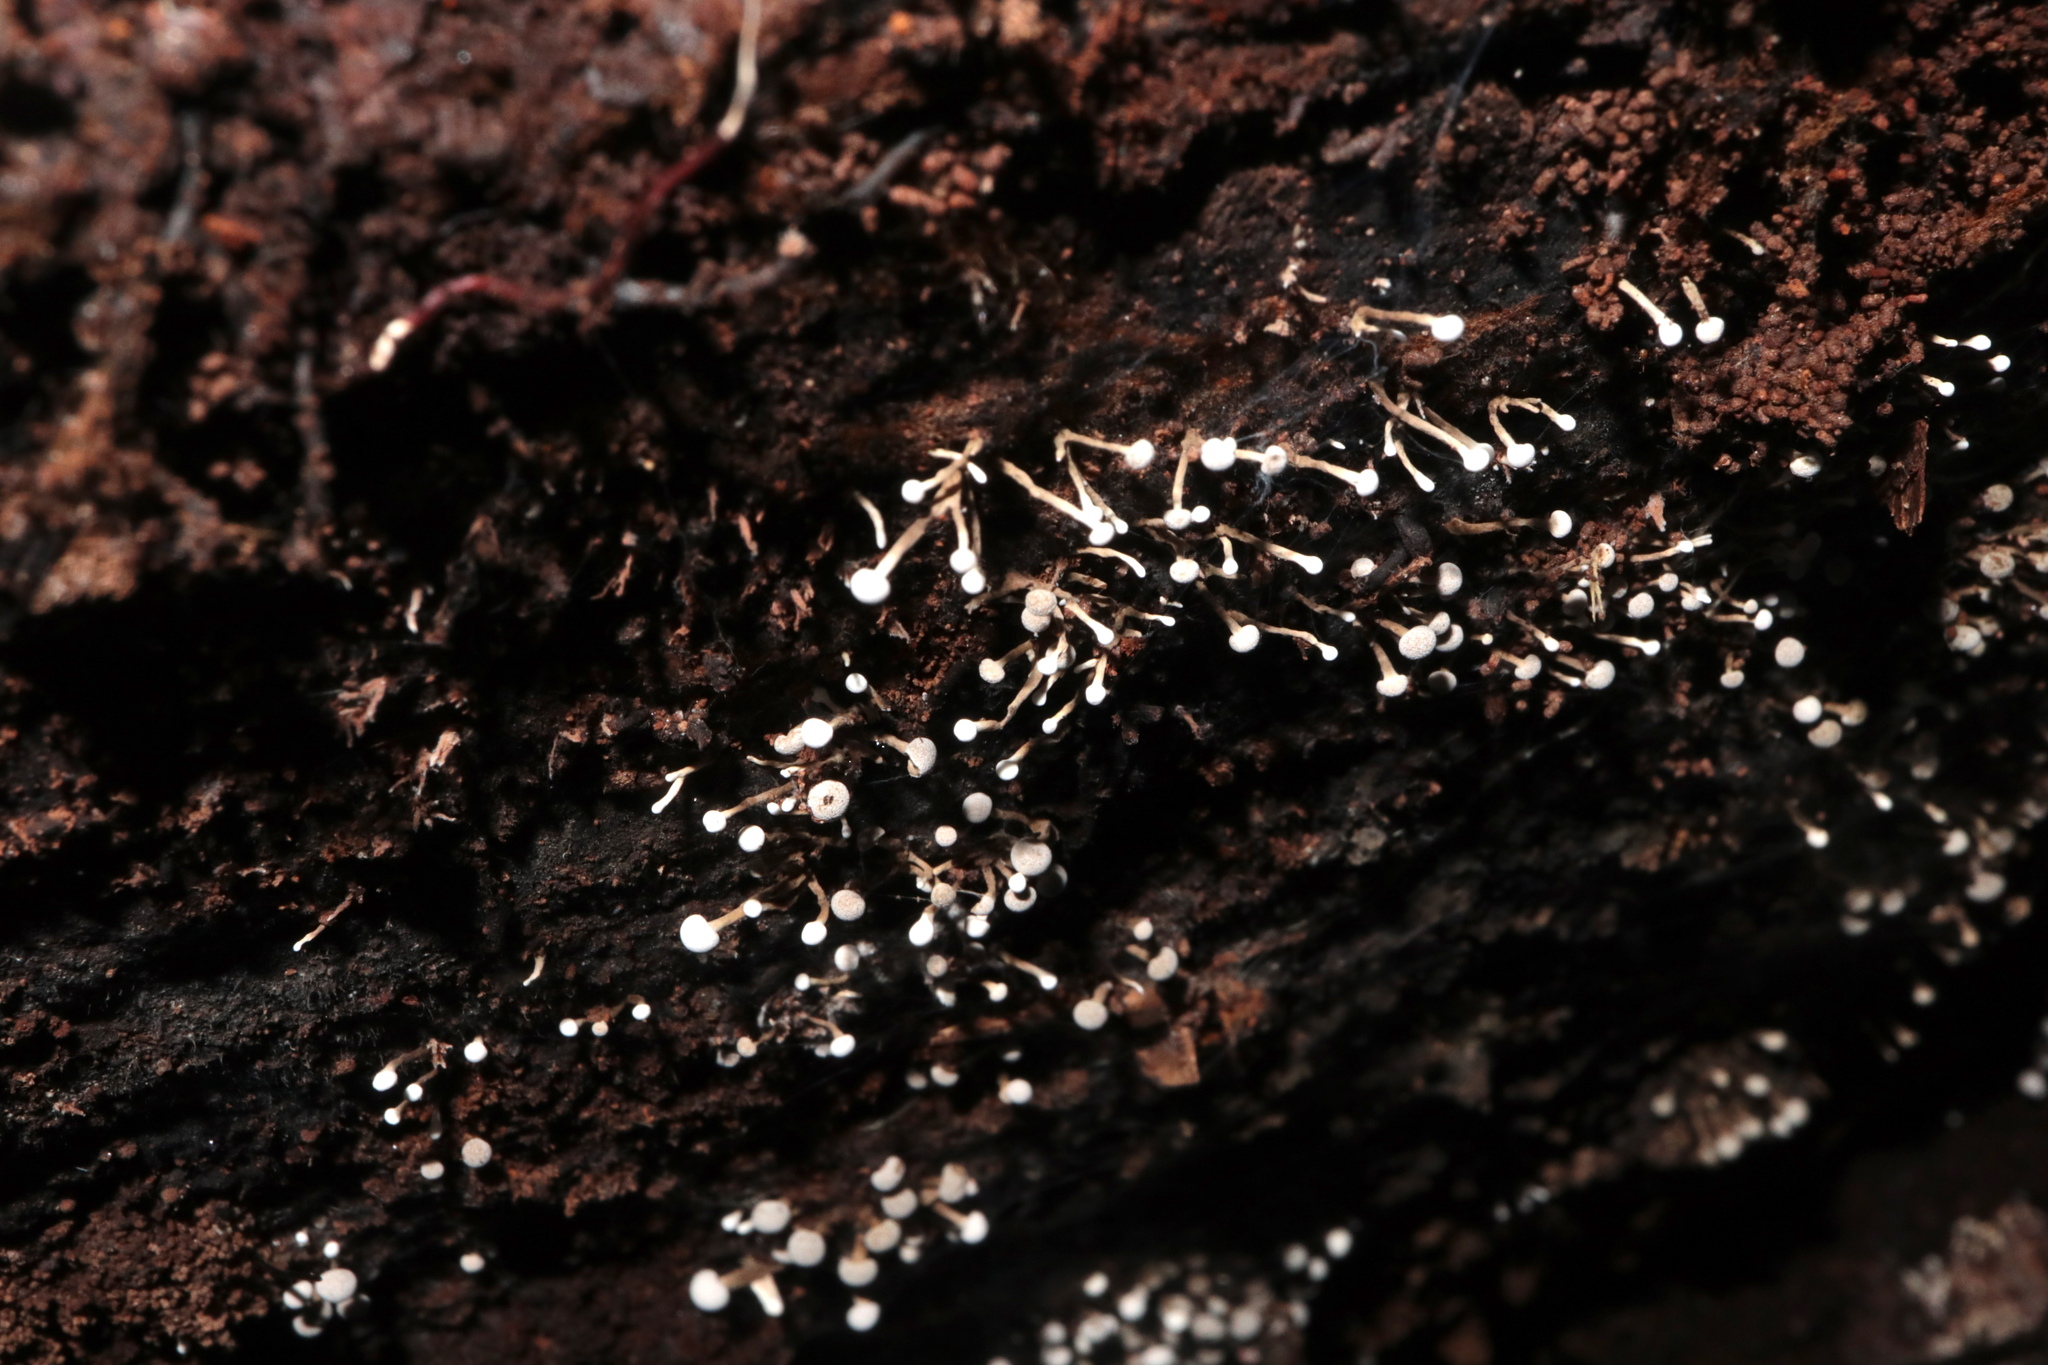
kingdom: Fungi
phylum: Basidiomycota
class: Atractiellomycetes
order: Atractiellales
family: Phleogenaceae
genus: Phleogena
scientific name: Phleogena faginea
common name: Fenugreek stalkball
